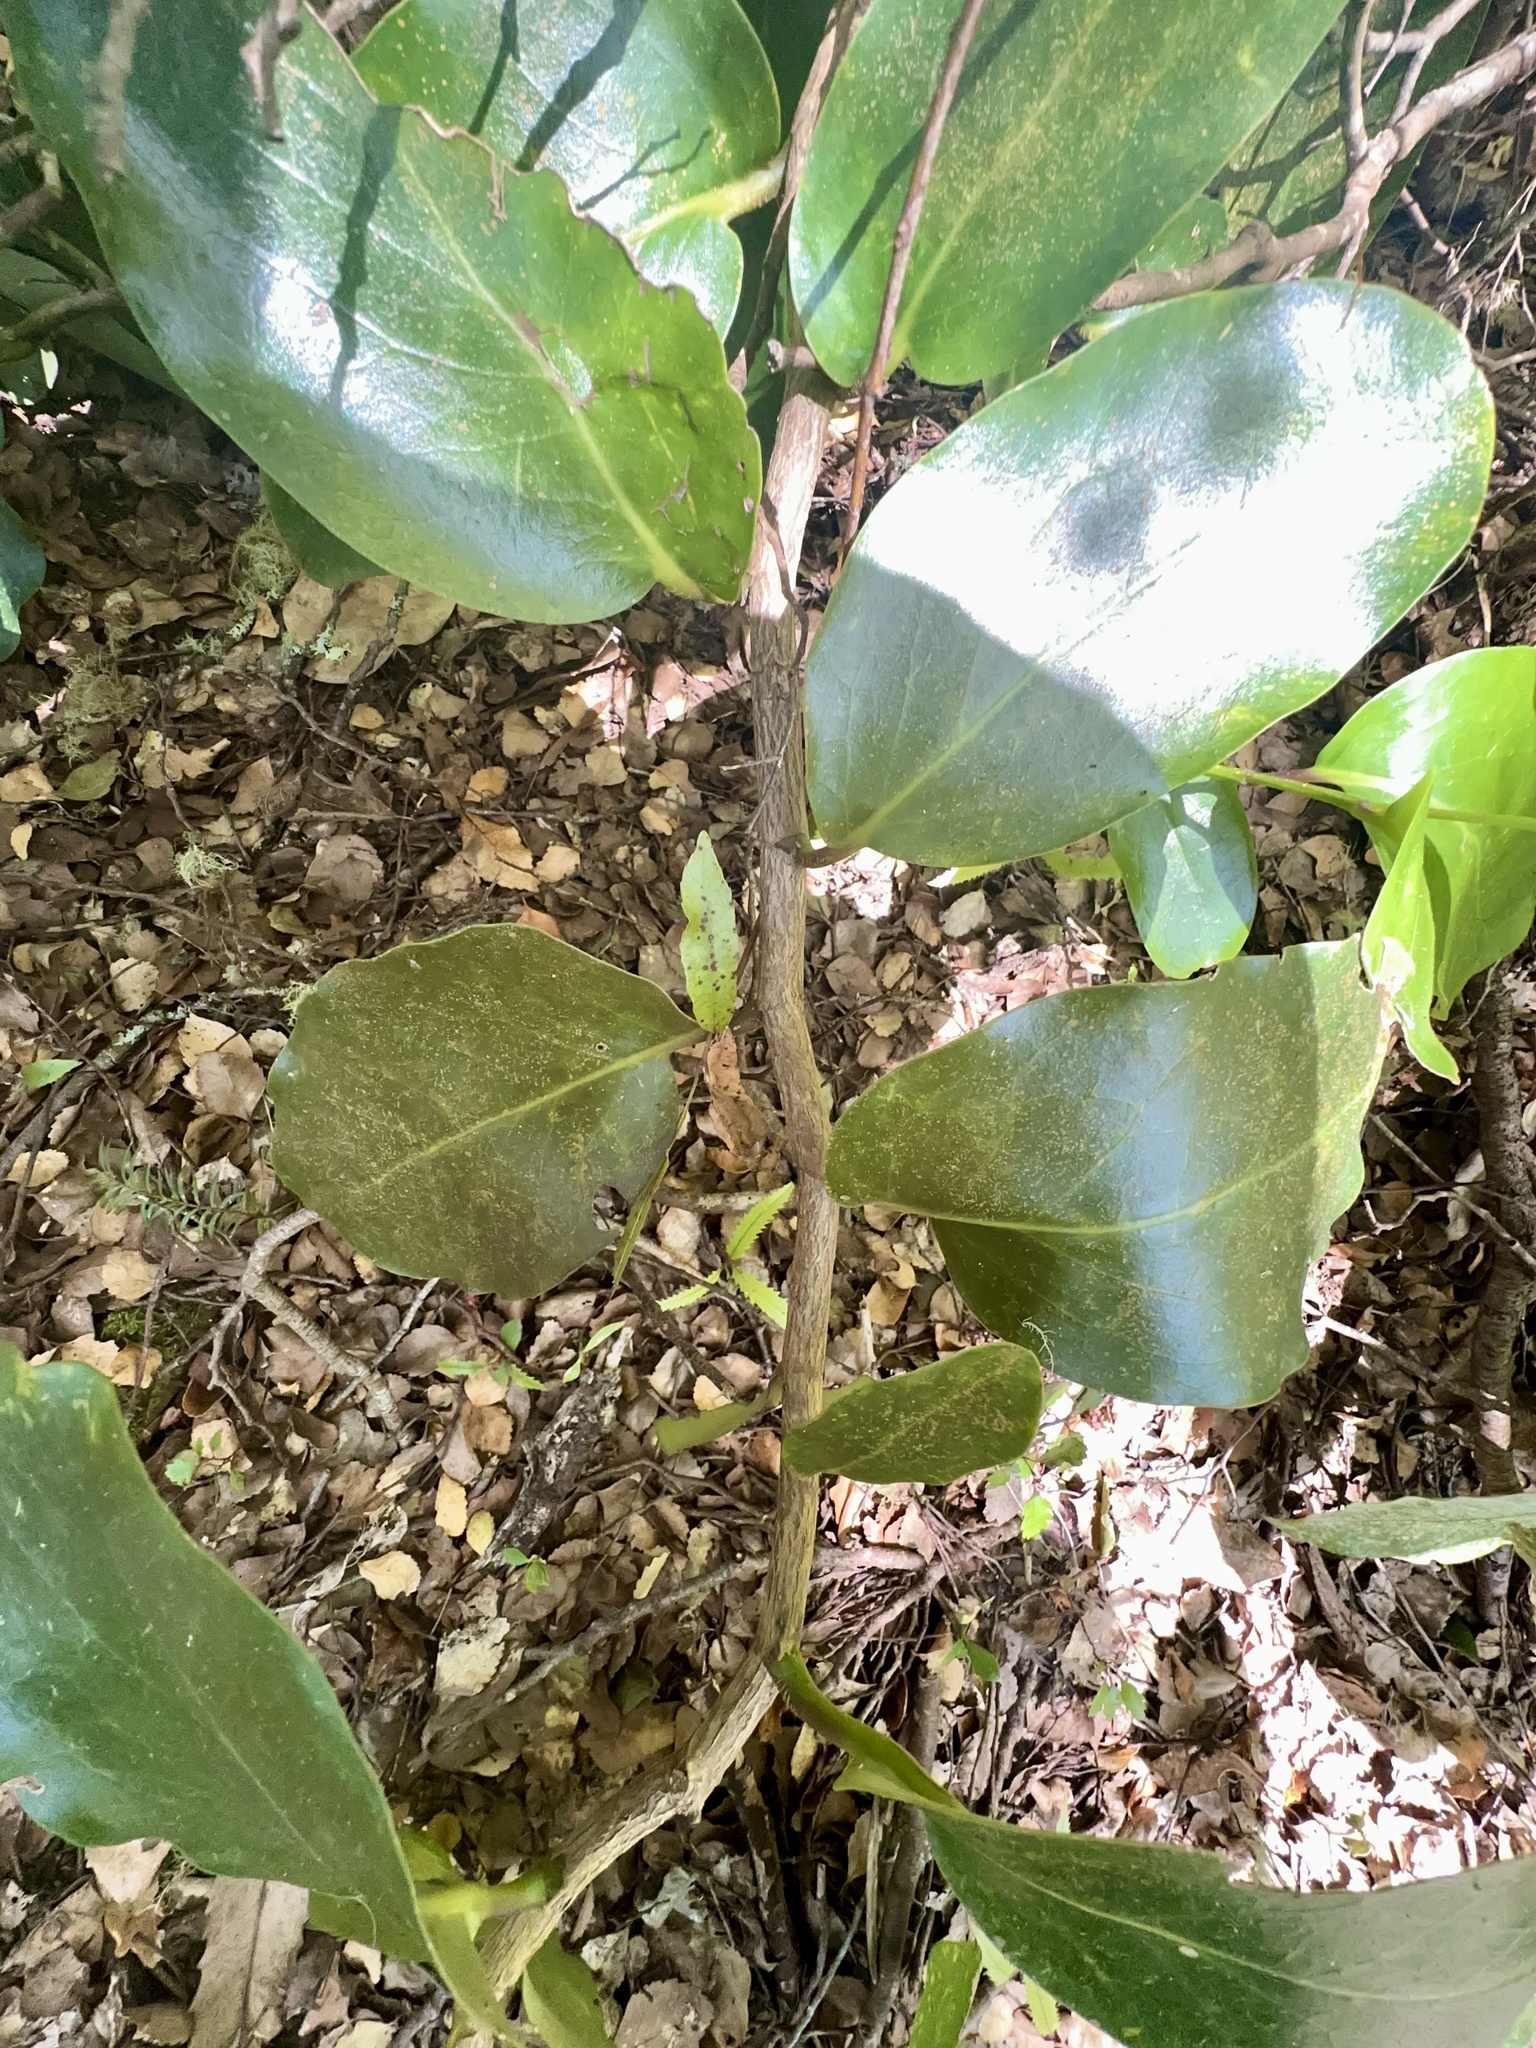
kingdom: Plantae
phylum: Tracheophyta
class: Magnoliopsida
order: Apiales
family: Griseliniaceae
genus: Griselinia
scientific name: Griselinia lucida
